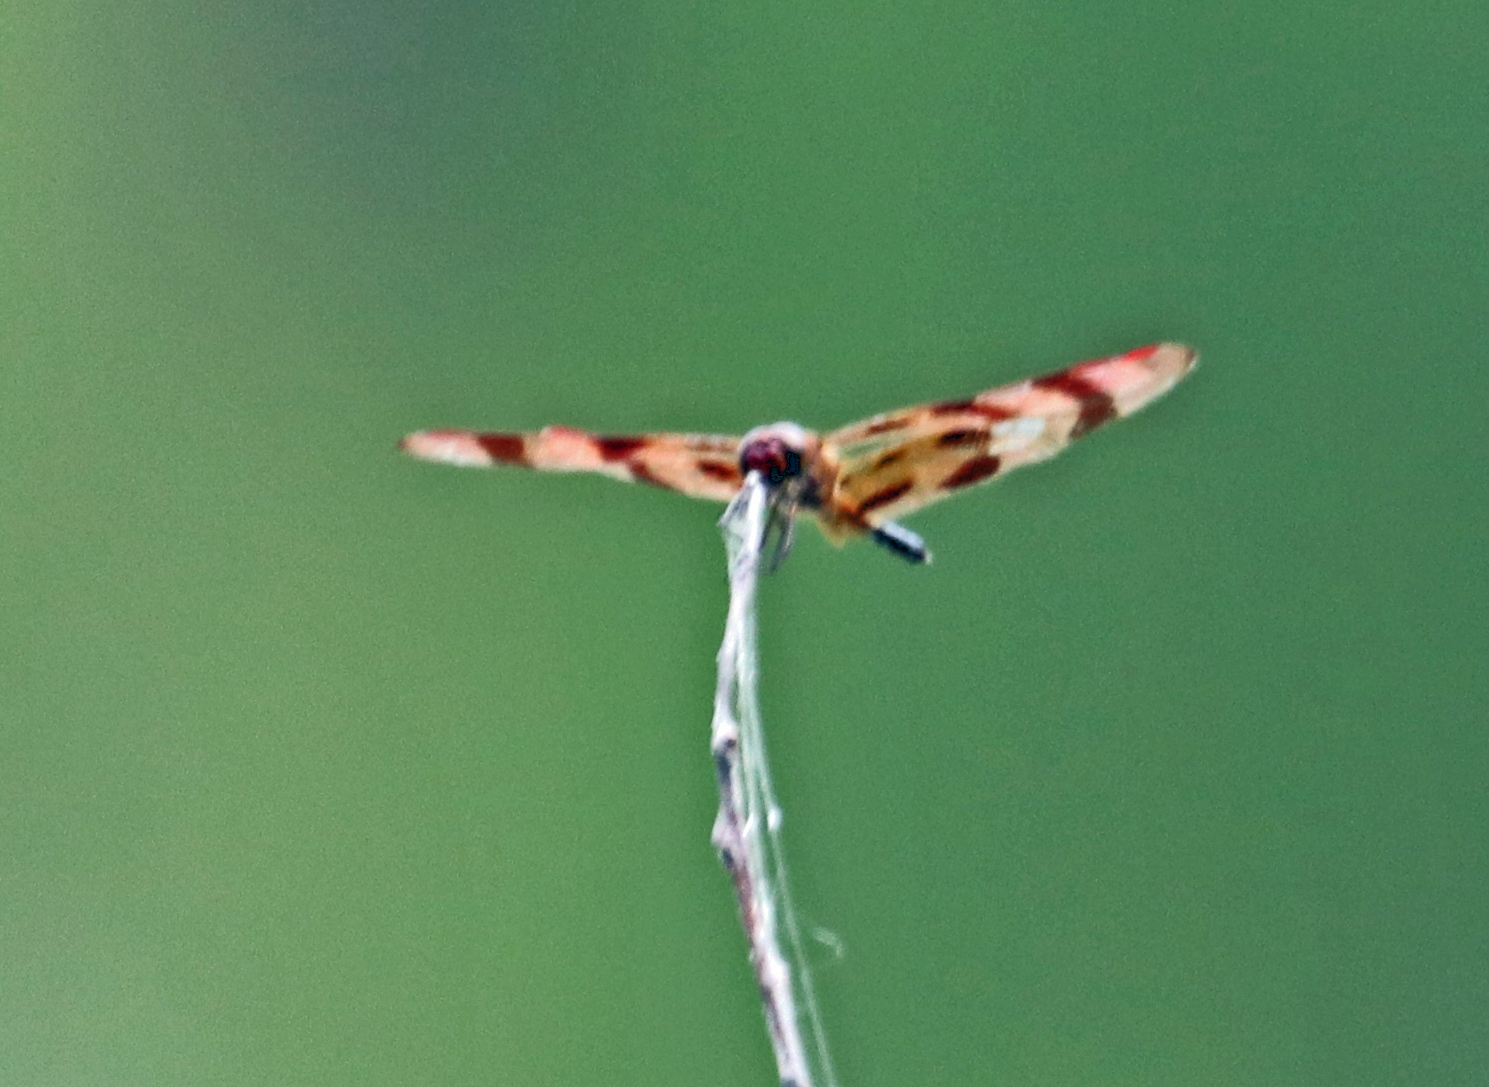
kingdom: Animalia
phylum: Arthropoda
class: Insecta
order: Odonata
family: Libellulidae
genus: Celithemis
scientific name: Celithemis eponina
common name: Halloween pennant
